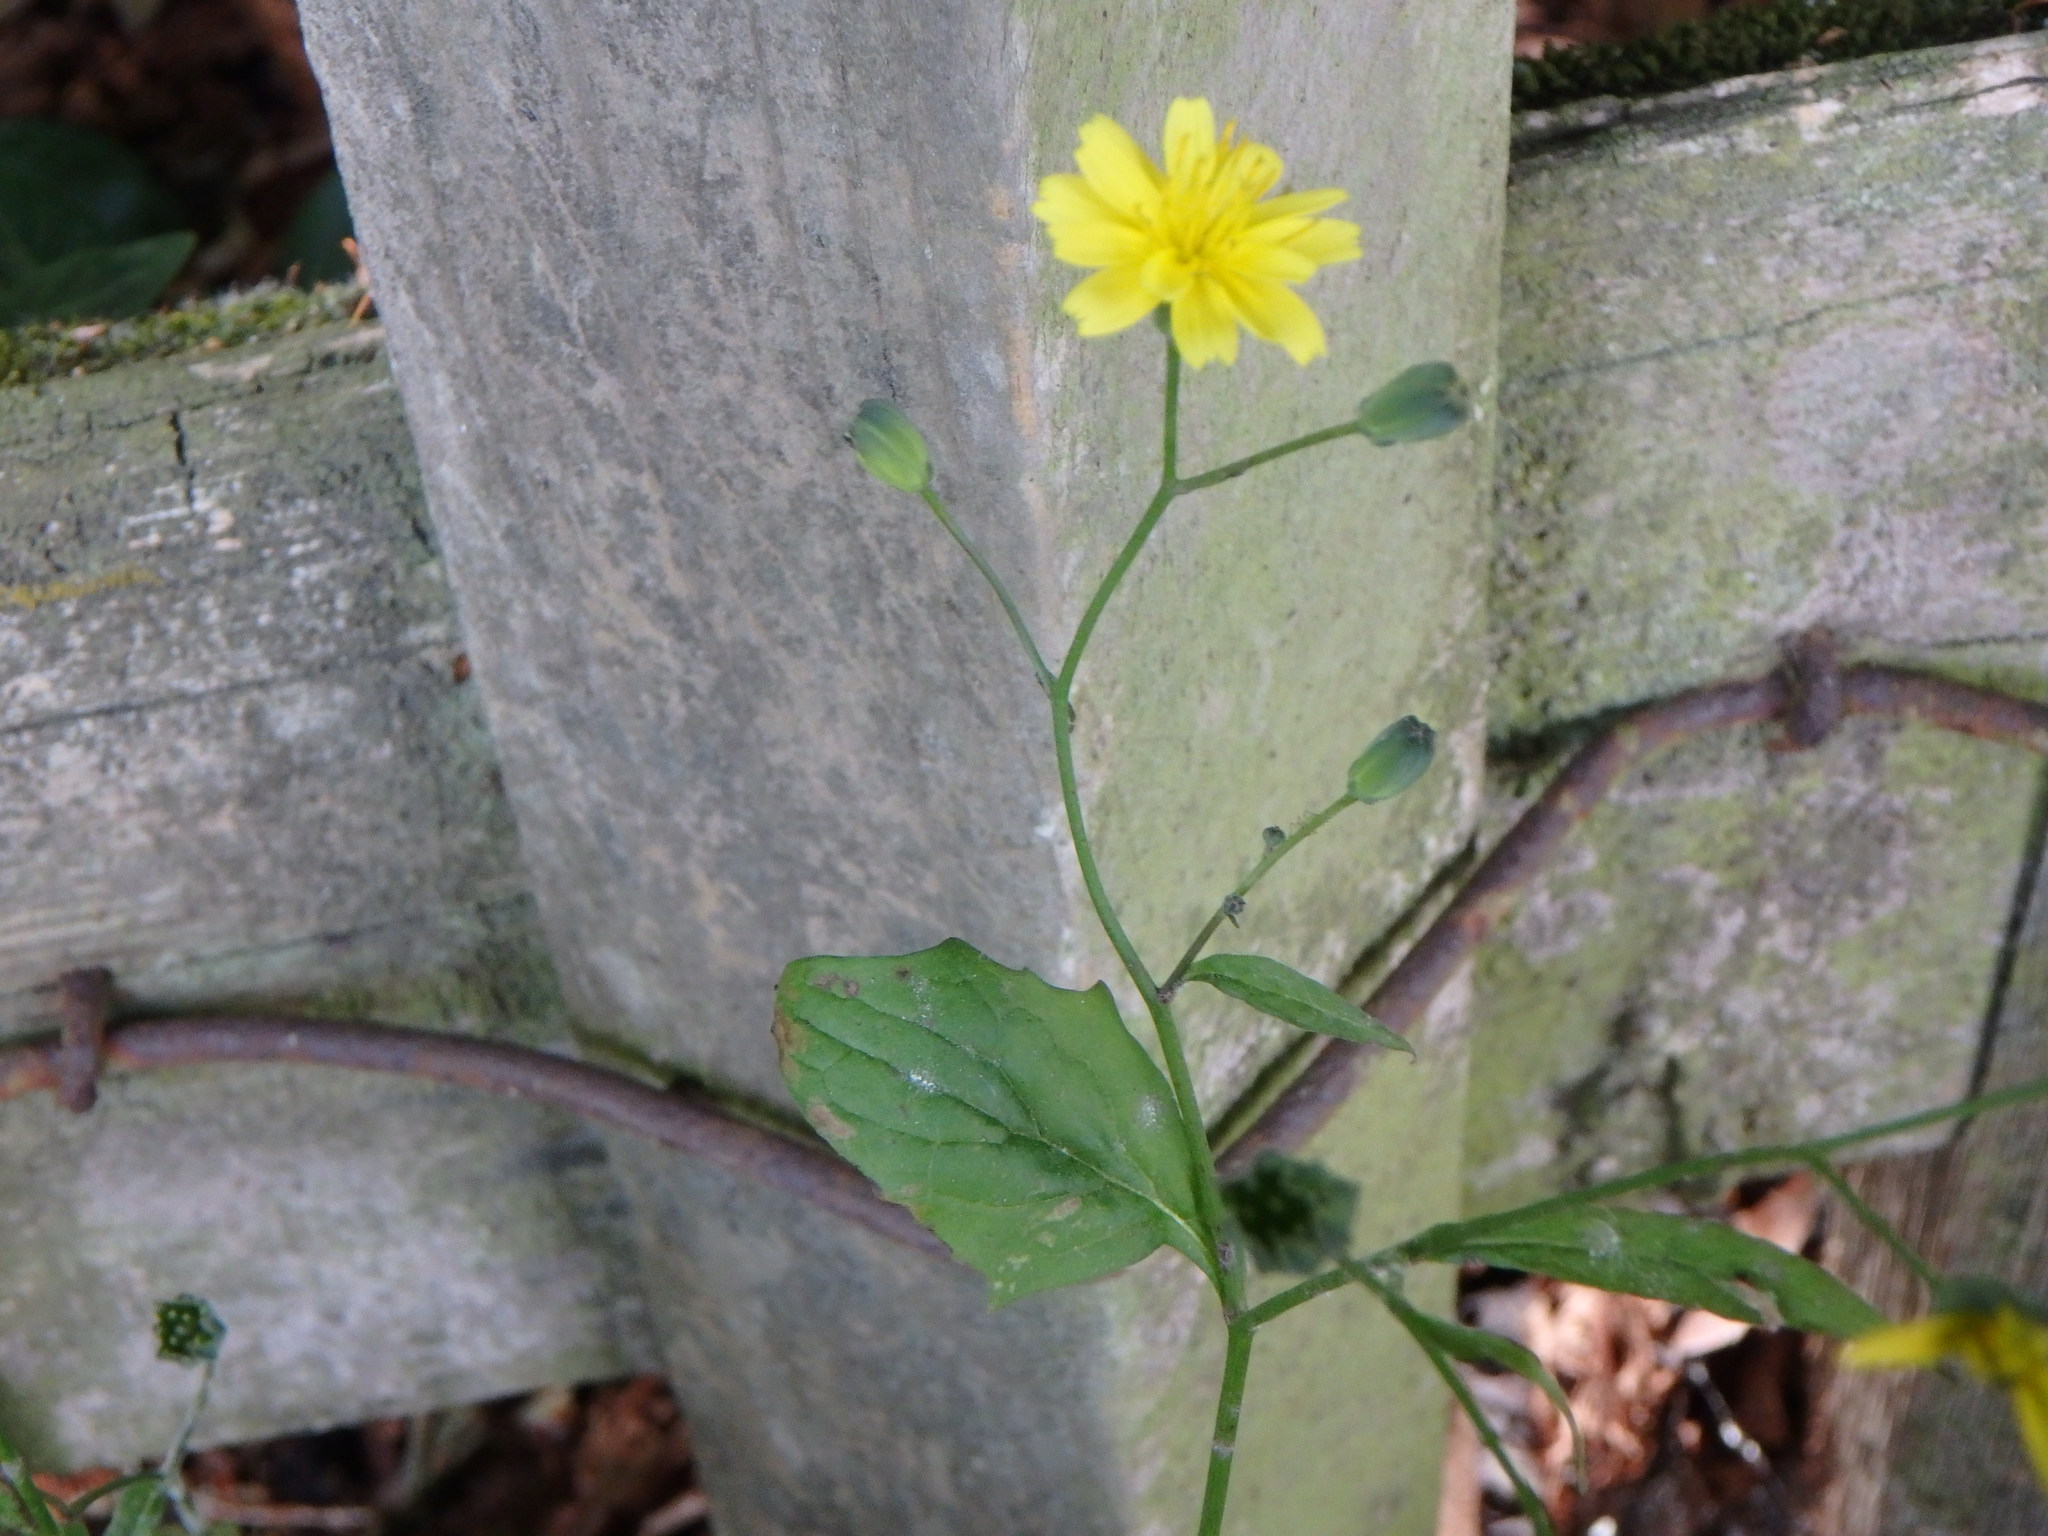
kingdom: Plantae
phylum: Tracheophyta
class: Magnoliopsida
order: Asterales
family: Asteraceae
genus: Lapsana
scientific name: Lapsana communis
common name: Nipplewort
